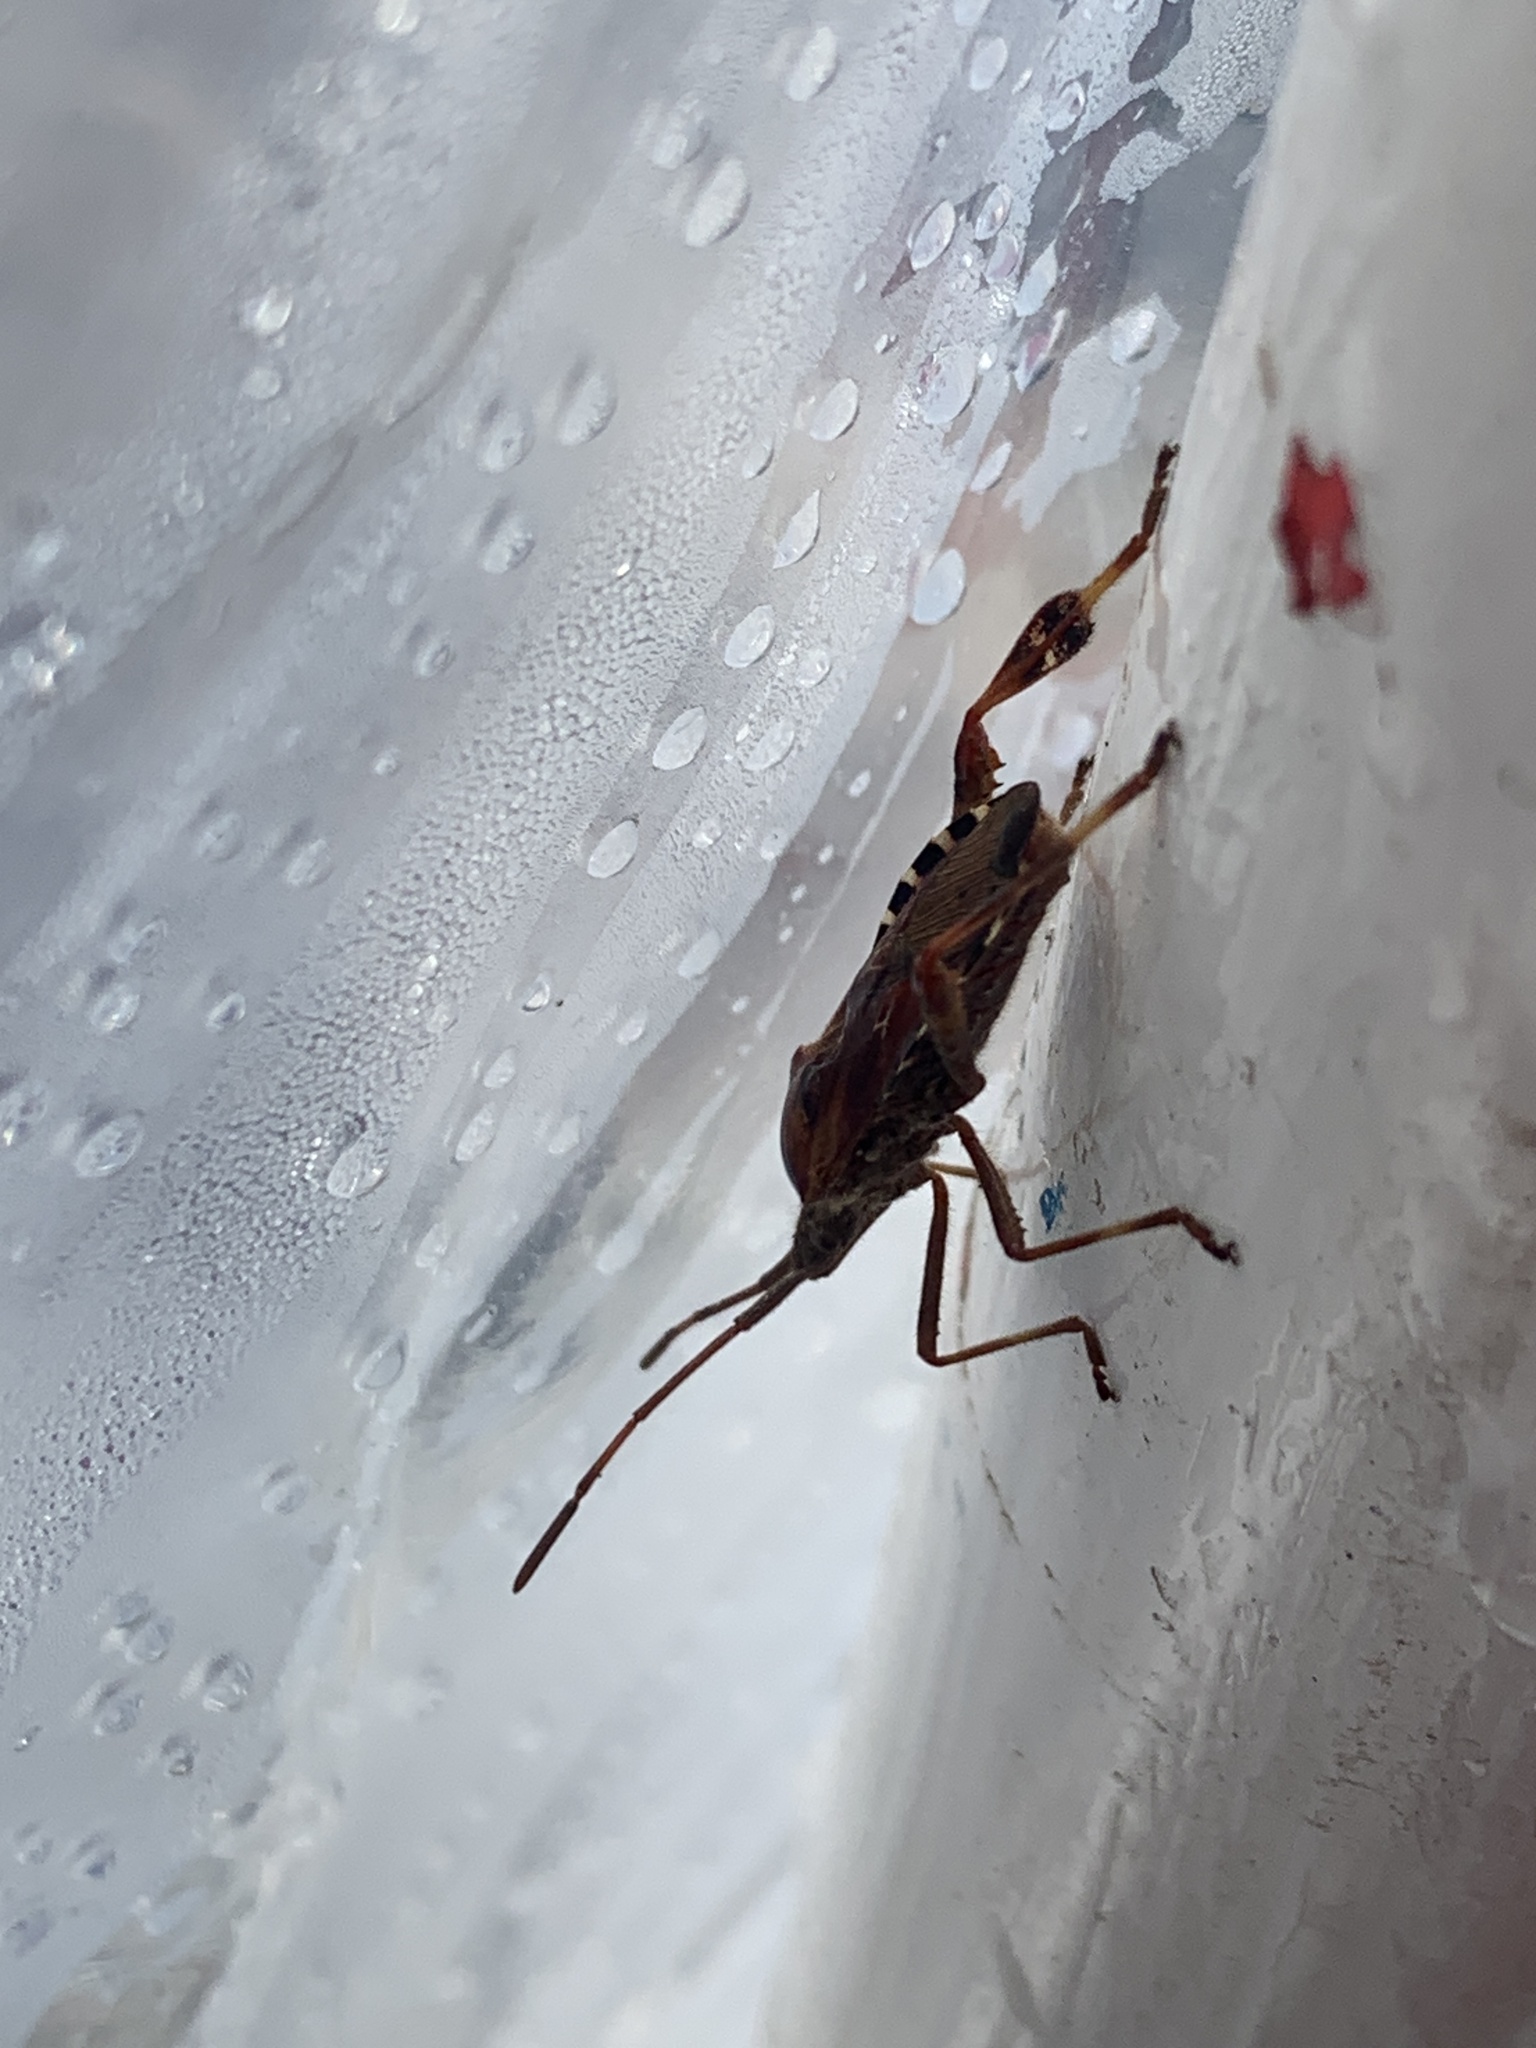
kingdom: Animalia
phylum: Arthropoda
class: Insecta
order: Hemiptera
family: Coreidae
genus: Leptoglossus
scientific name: Leptoglossus occidentalis
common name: Western conifer-seed bug
